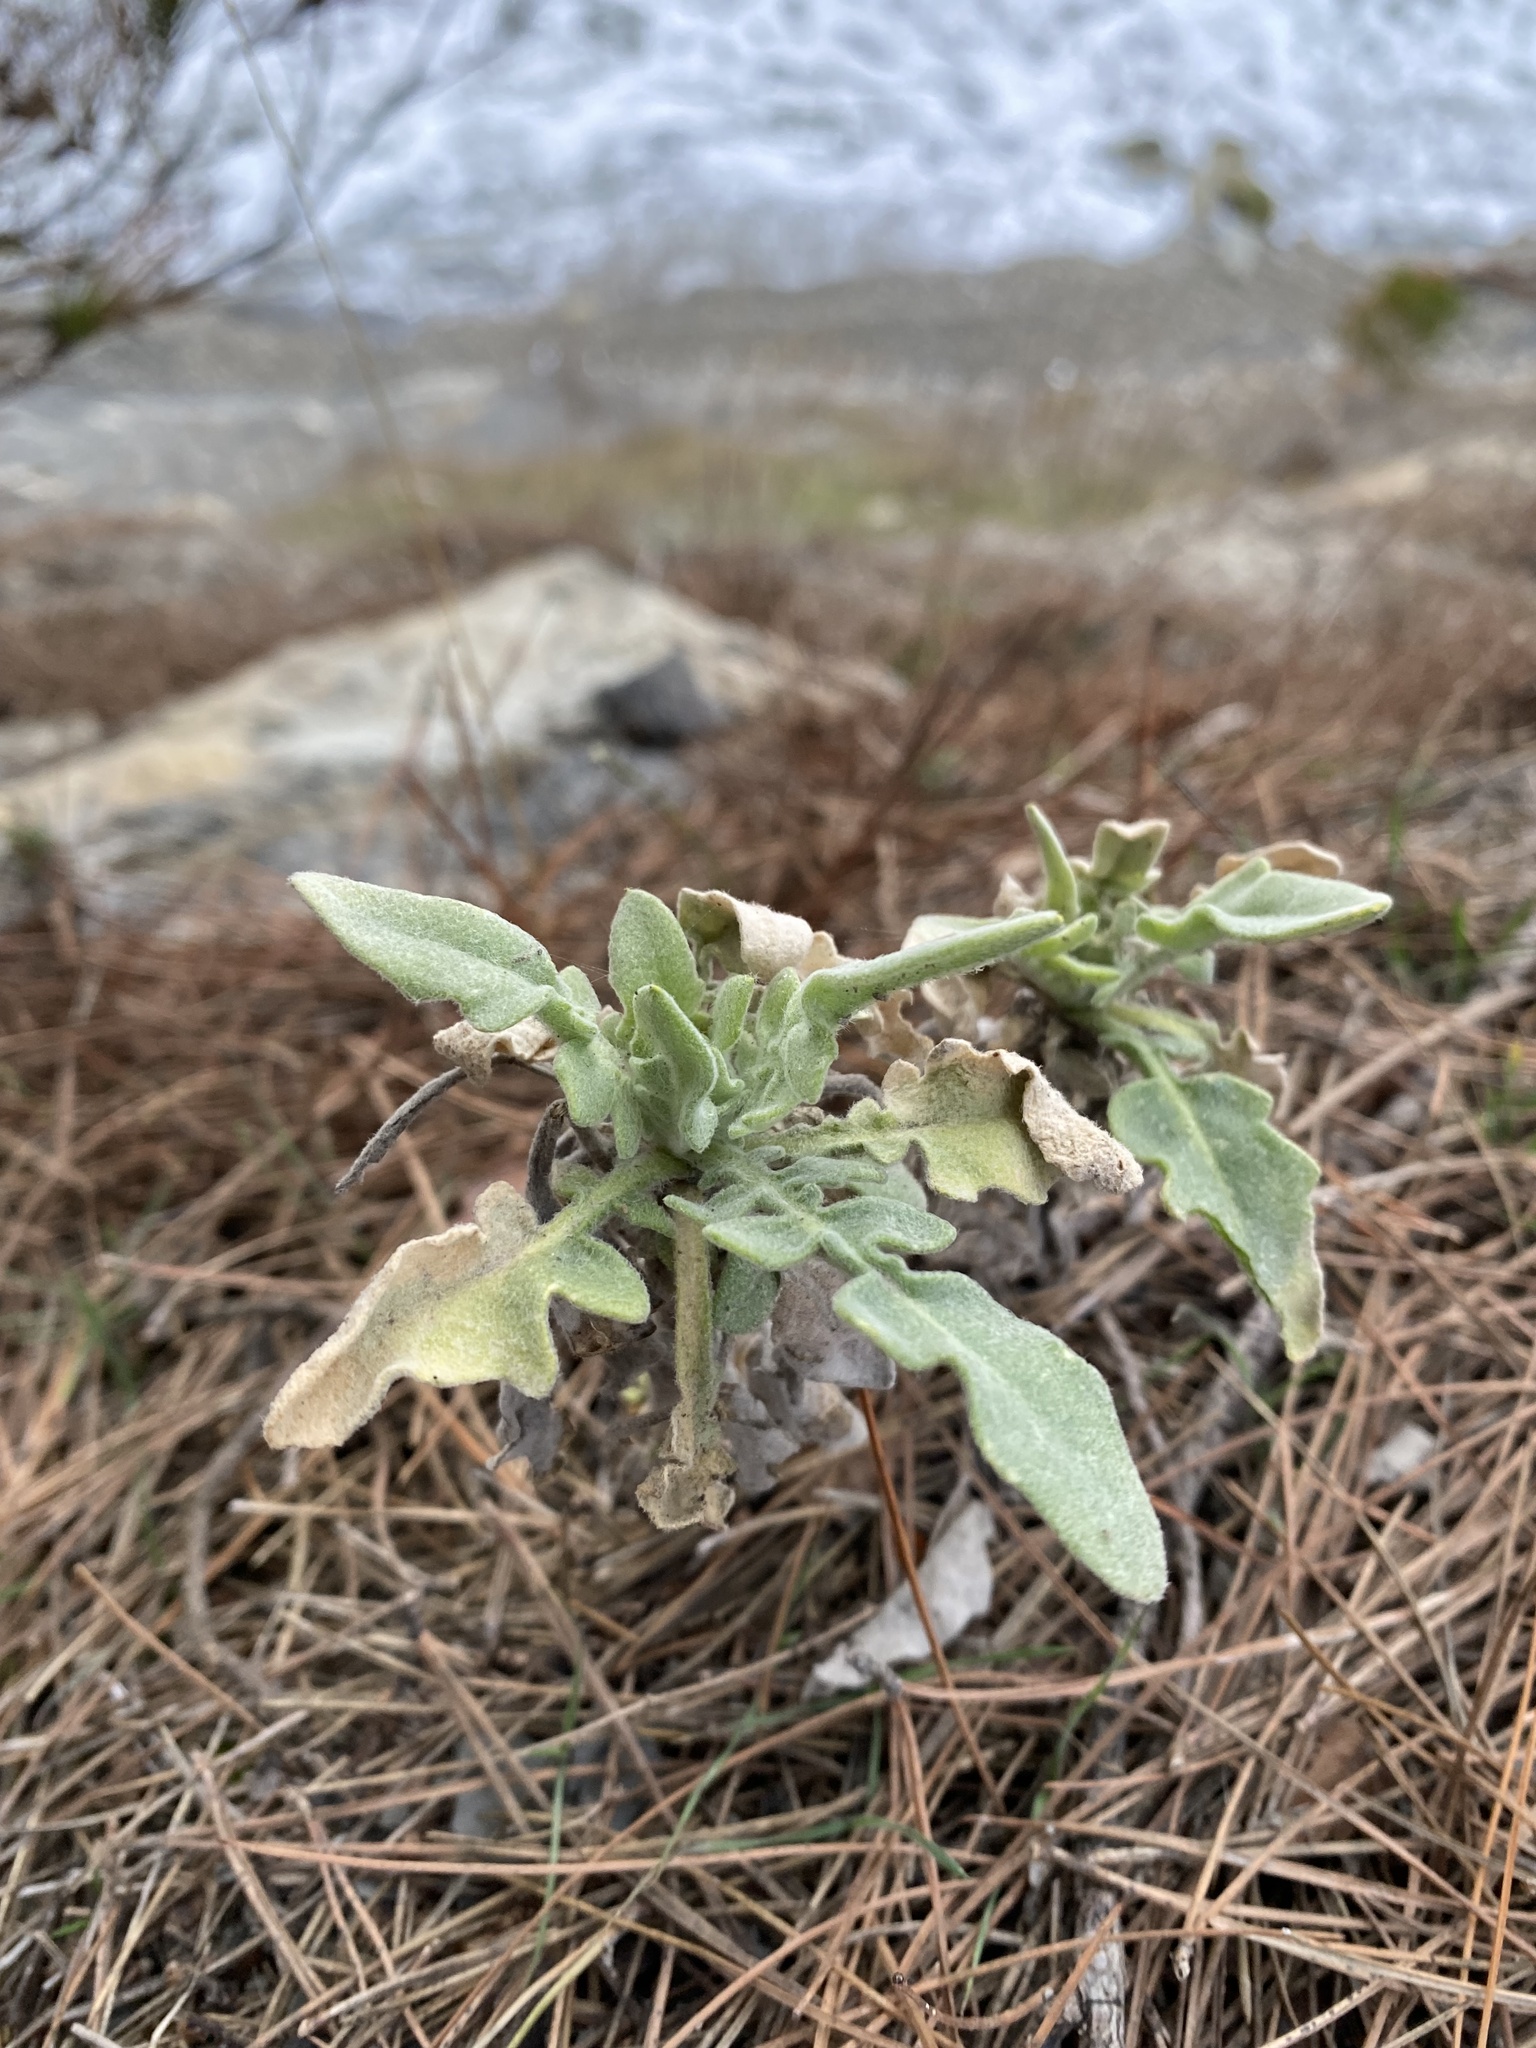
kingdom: Plantae
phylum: Tracheophyta
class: Magnoliopsida
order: Brassicales
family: Brassicaceae
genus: Matthiola
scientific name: Matthiola odoratissima
